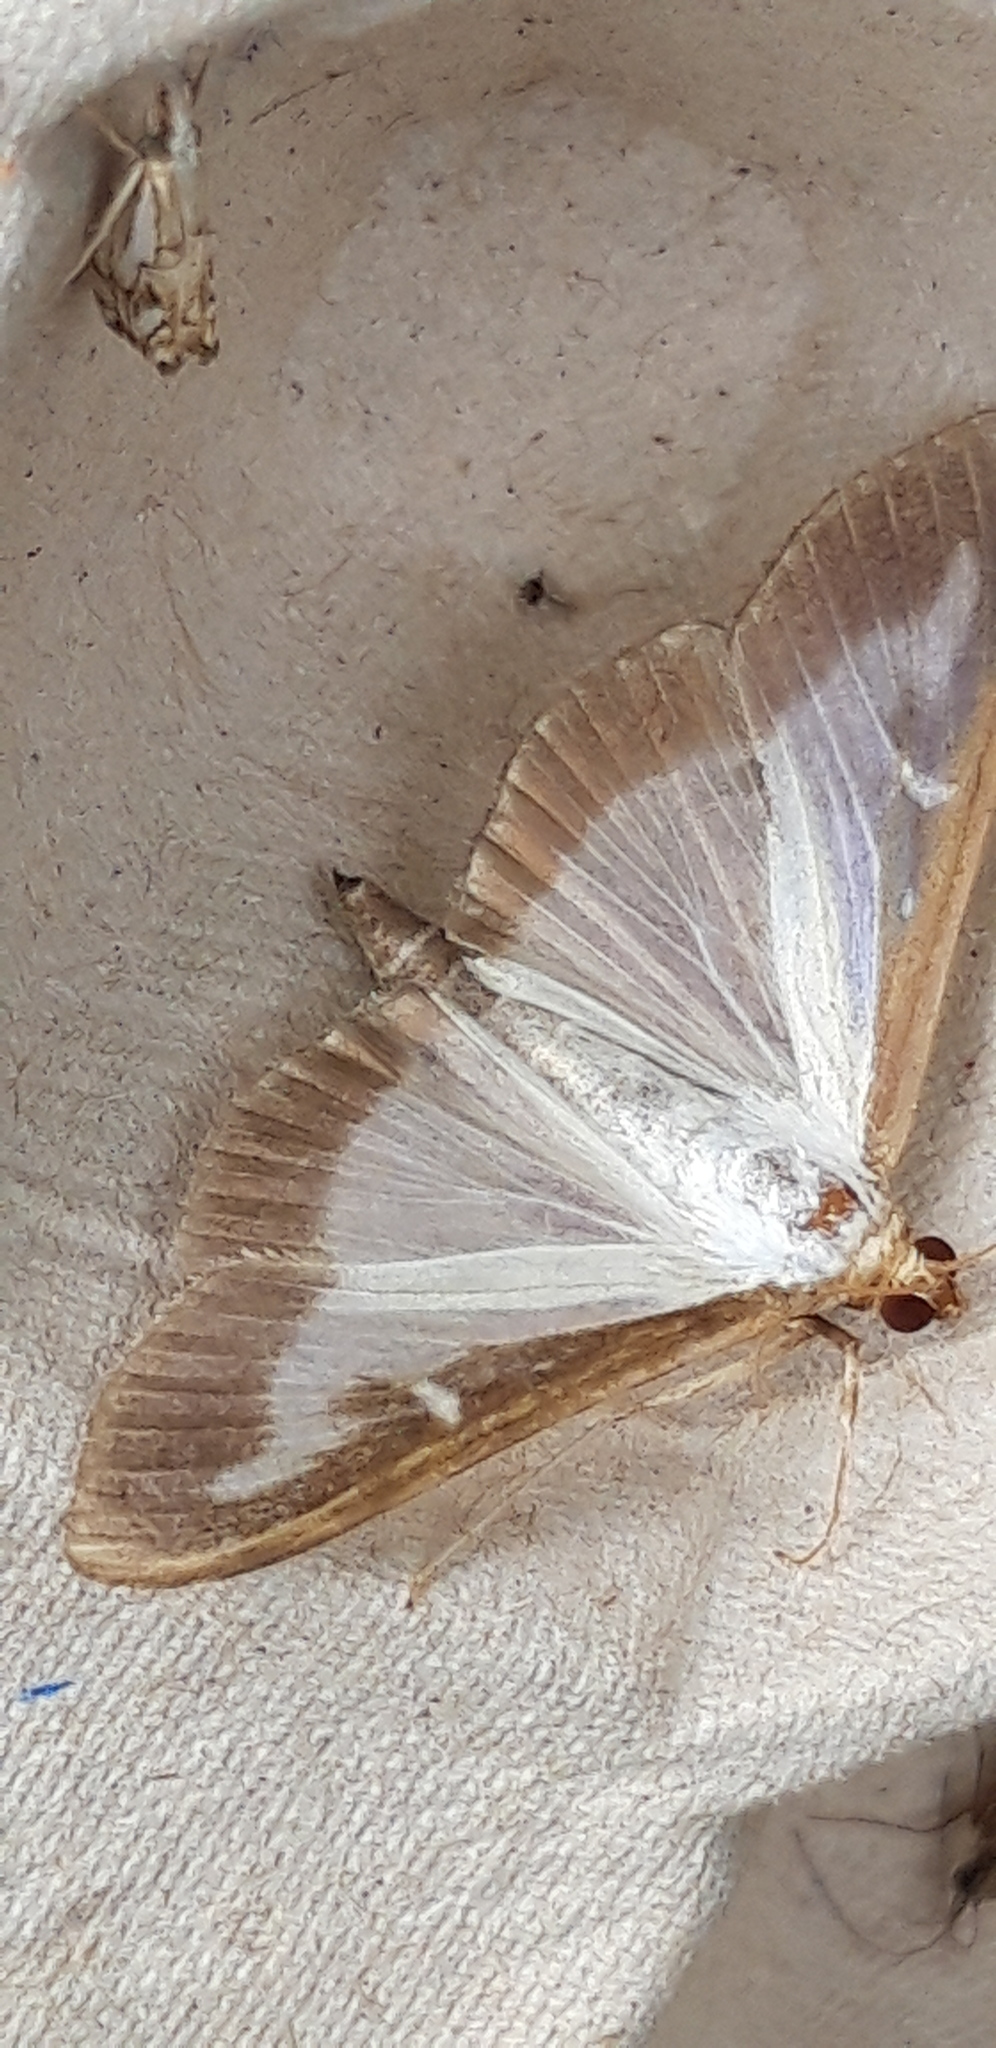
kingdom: Animalia
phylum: Arthropoda
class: Insecta
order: Lepidoptera
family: Crambidae
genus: Cydalima
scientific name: Cydalima perspectalis
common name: Box tree moth
